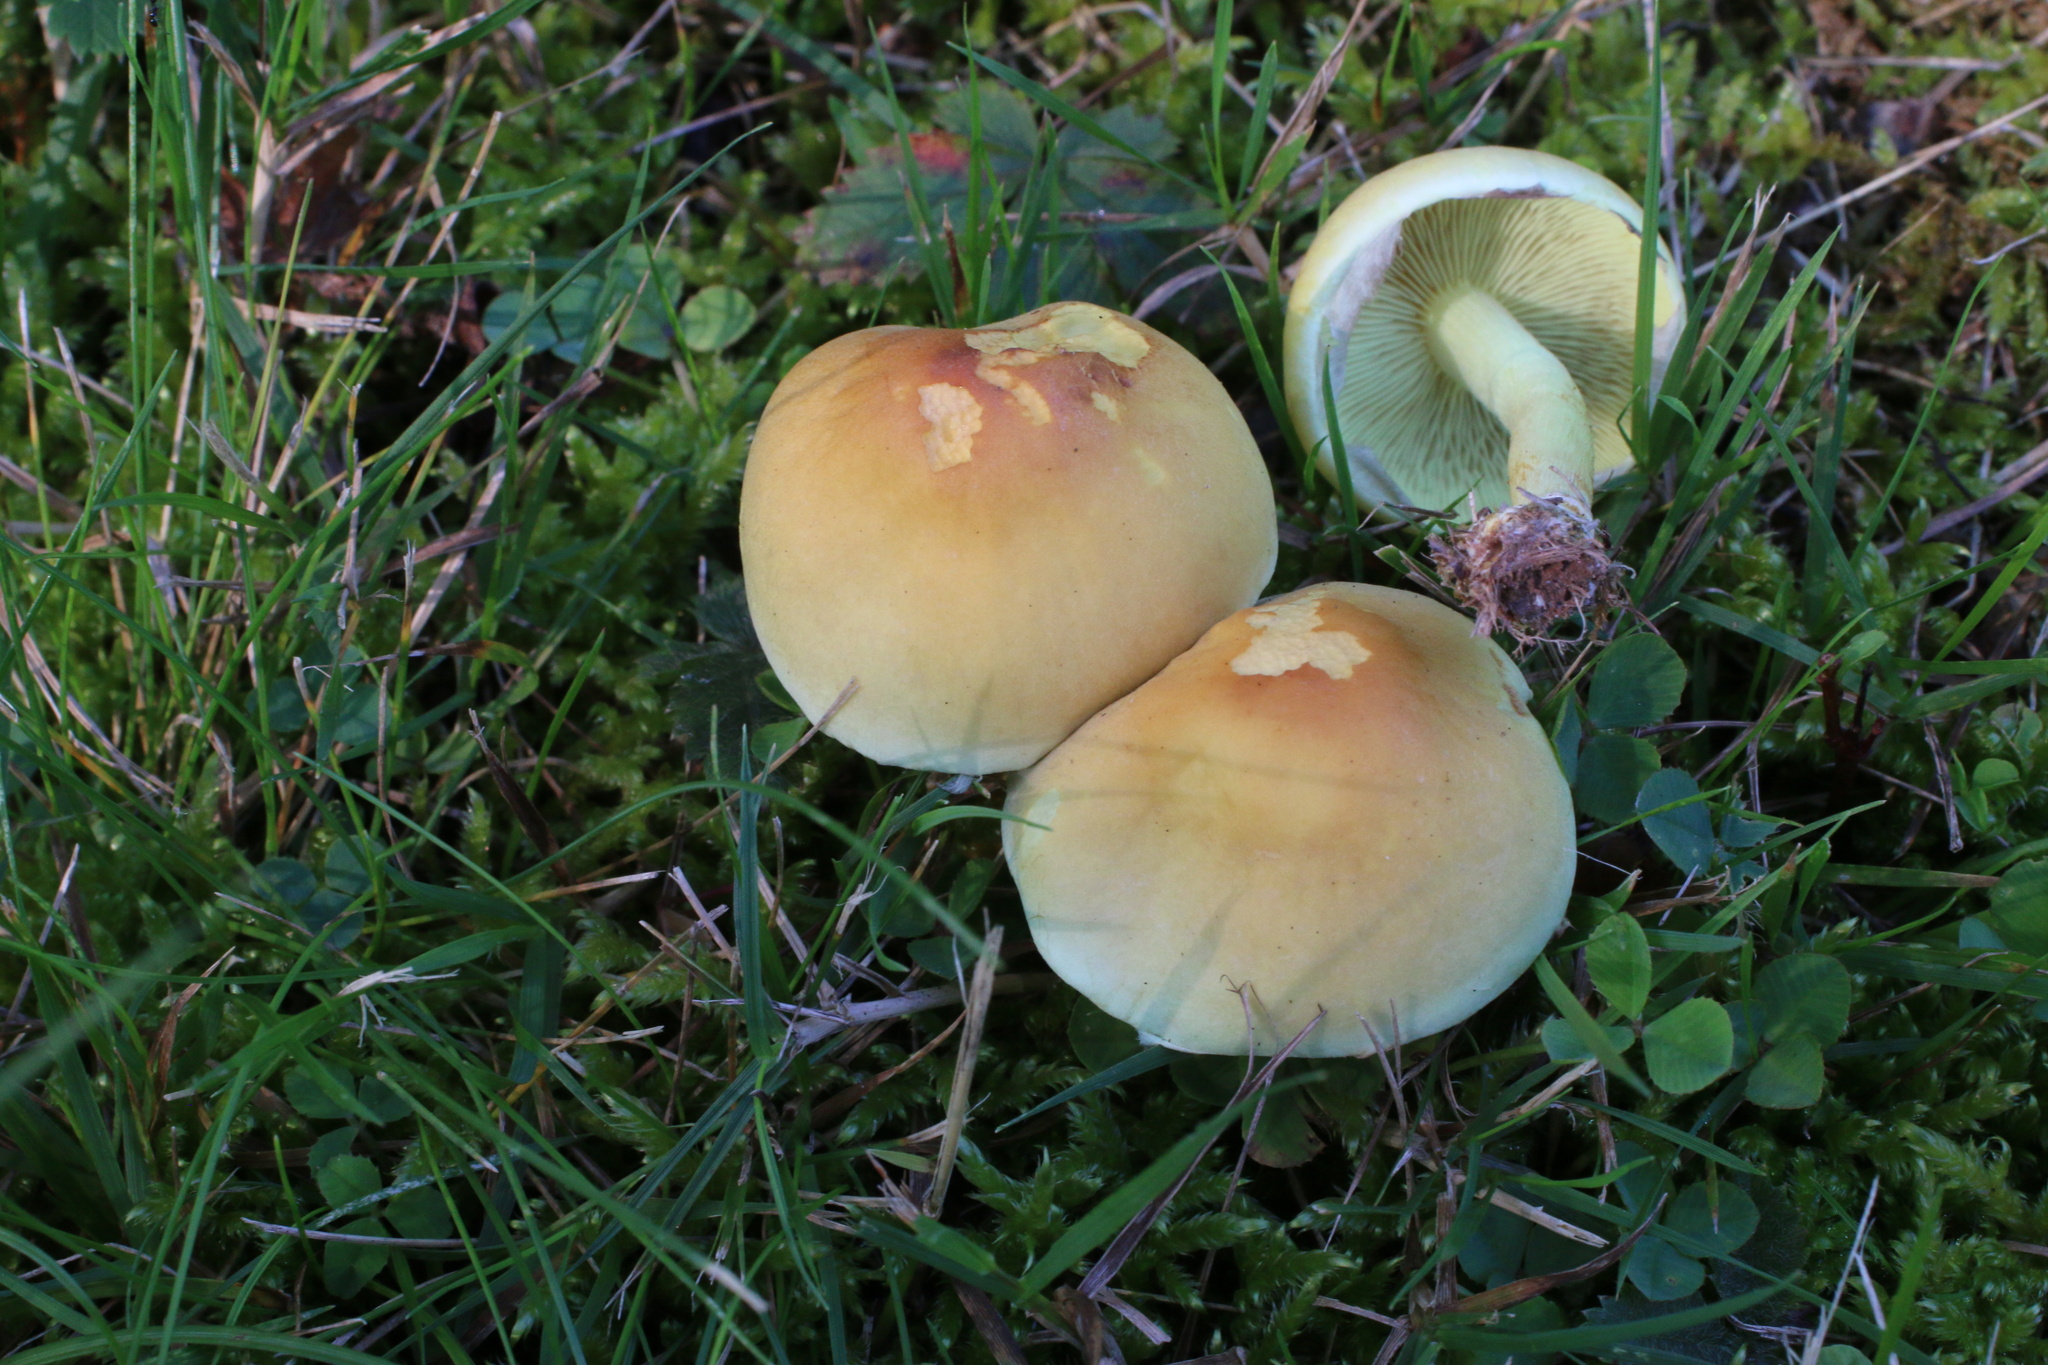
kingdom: Fungi
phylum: Basidiomycota
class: Agaricomycetes
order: Agaricales
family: Strophariaceae
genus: Hypholoma
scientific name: Hypholoma fasciculare
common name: Sulphur tuft
